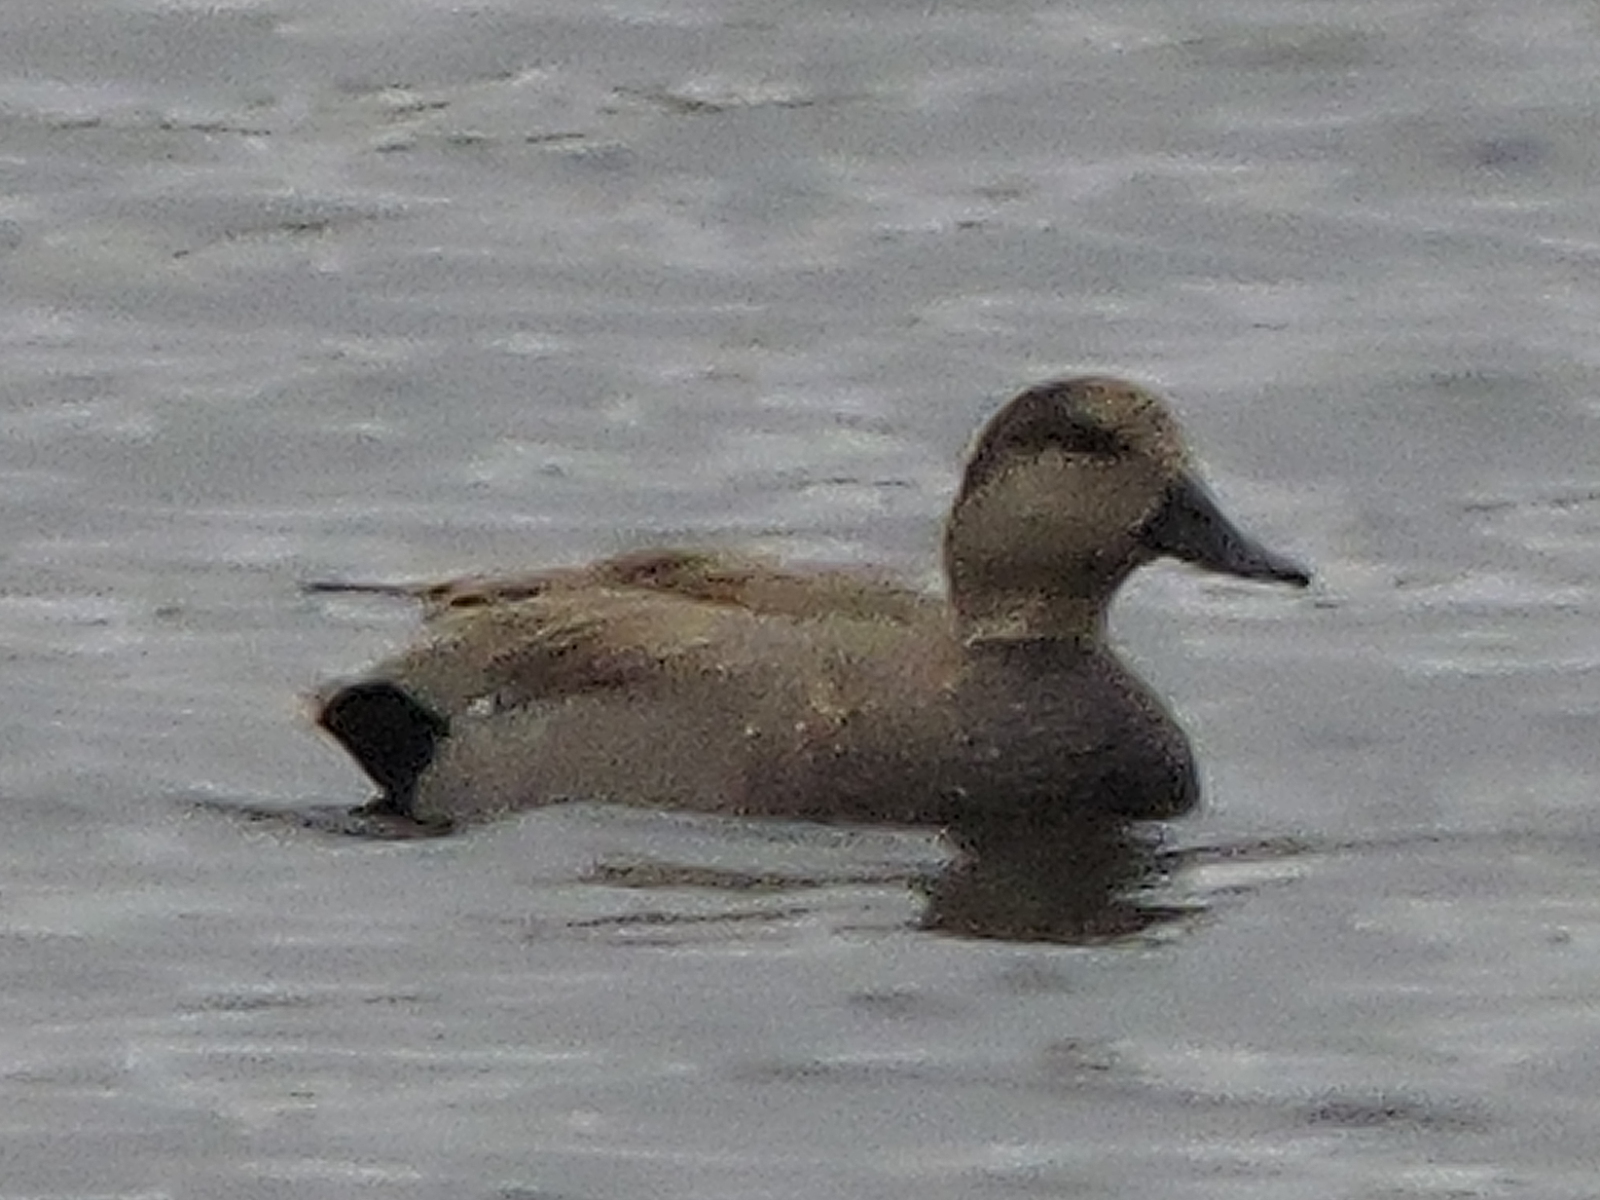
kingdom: Animalia
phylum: Chordata
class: Aves
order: Anseriformes
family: Anatidae
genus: Mareca
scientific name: Mareca strepera
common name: Gadwall
